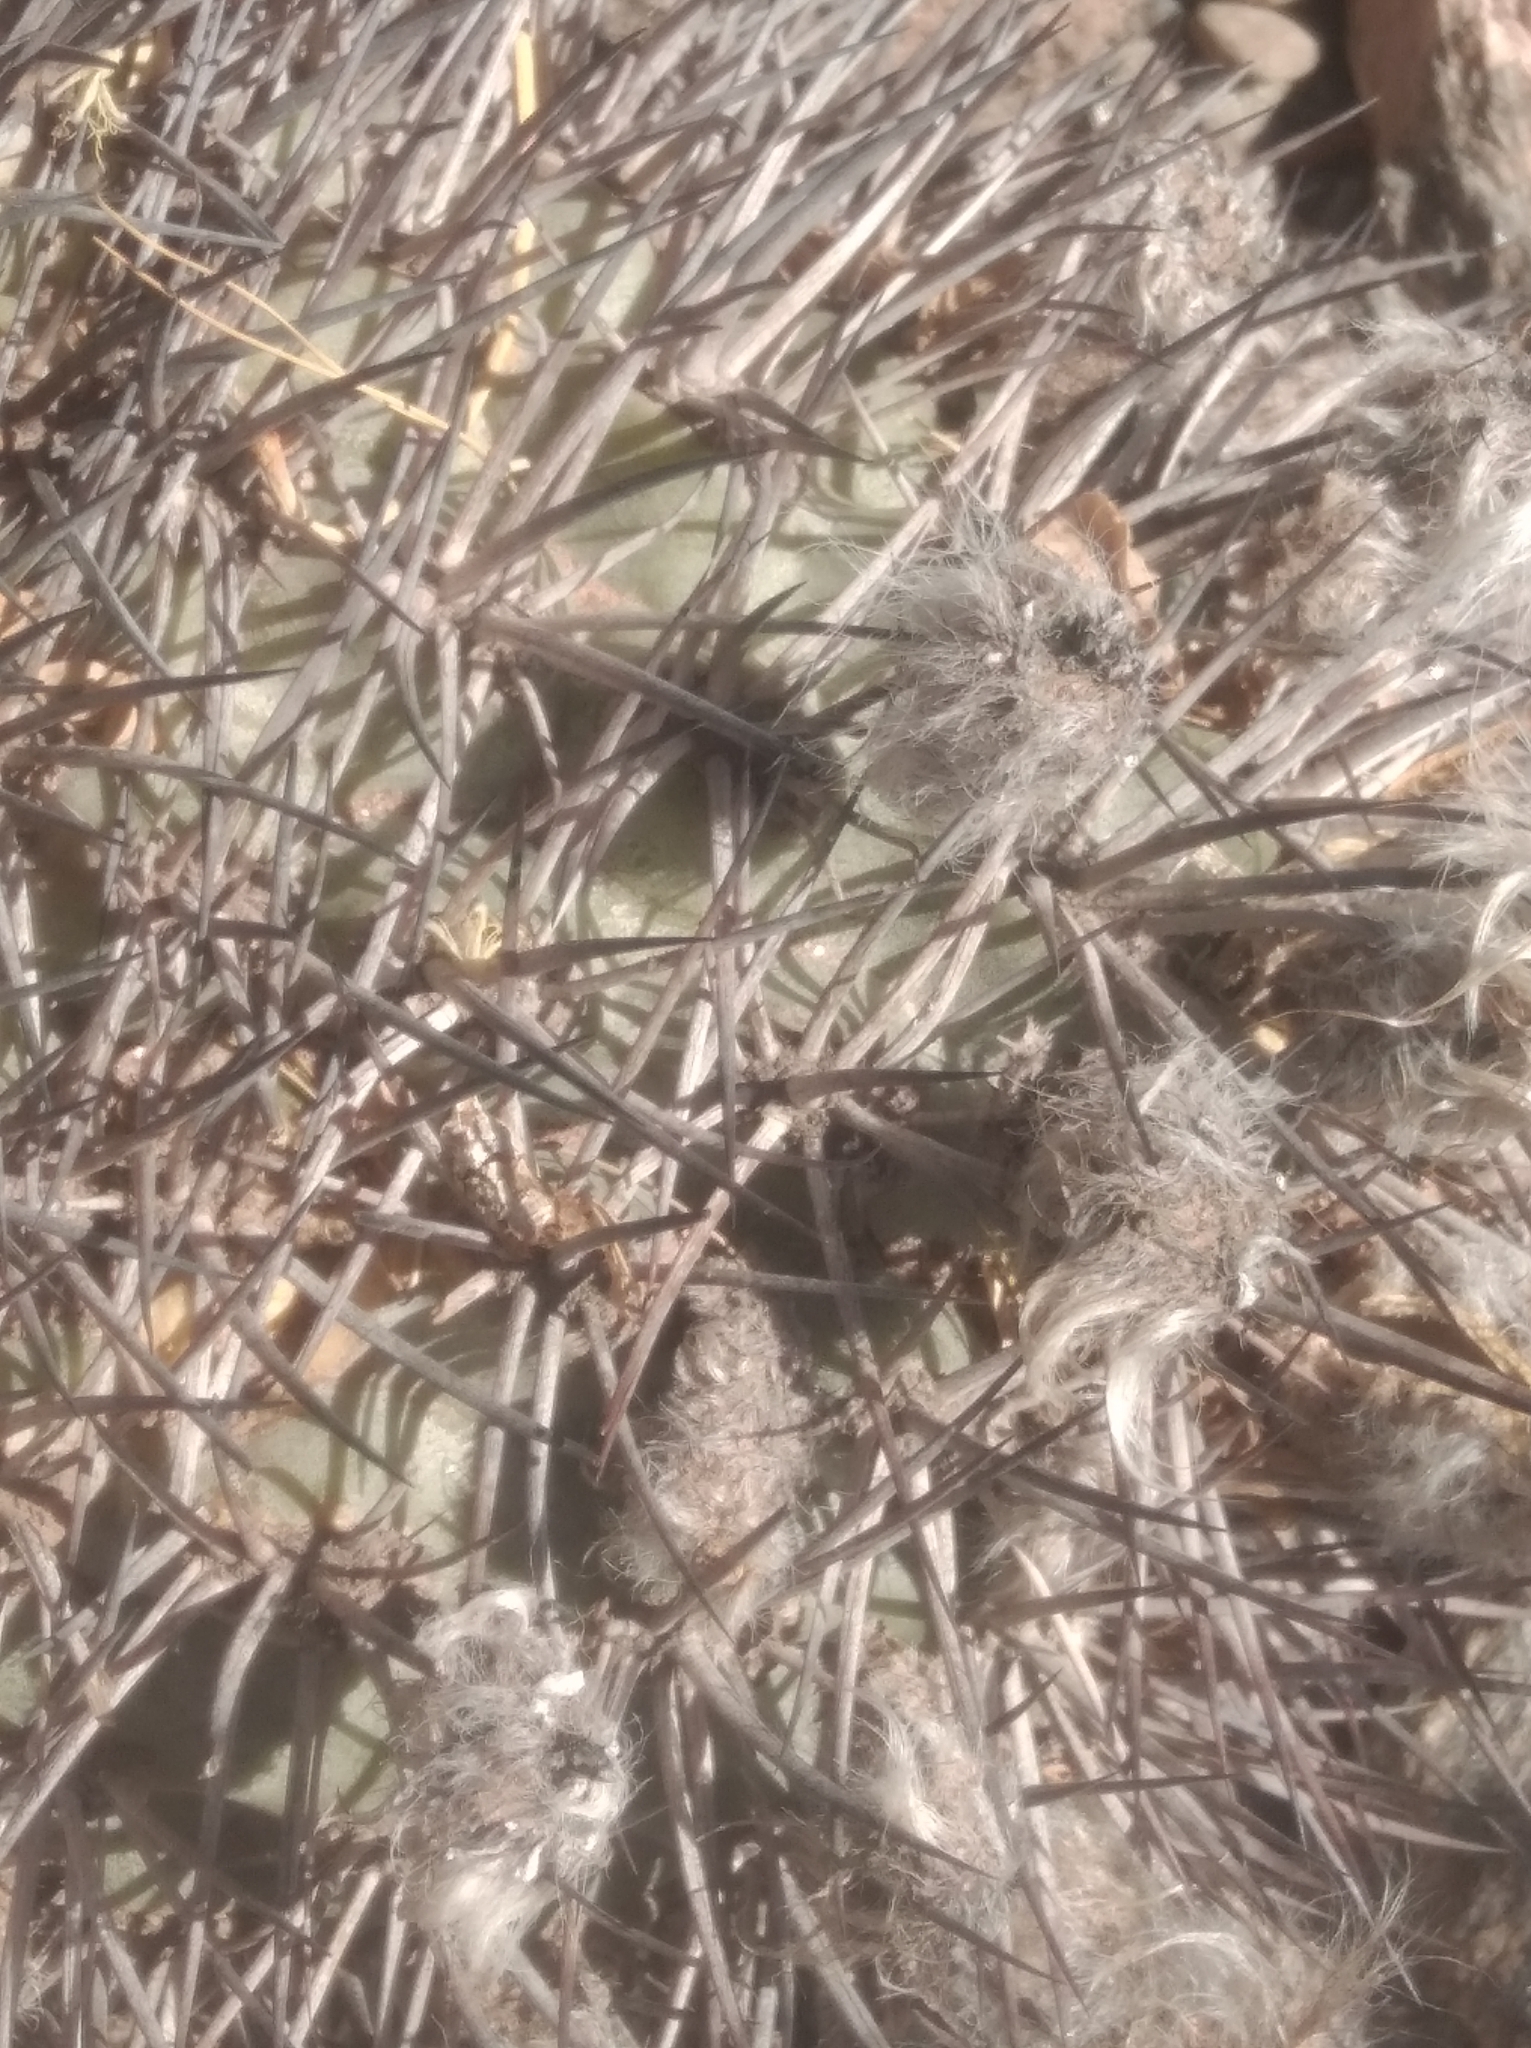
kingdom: Plantae
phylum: Tracheophyta
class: Magnoliopsida
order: Caryophyllales
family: Cactaceae
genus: Acanthocalycium
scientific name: Acanthocalycium thionanthum
